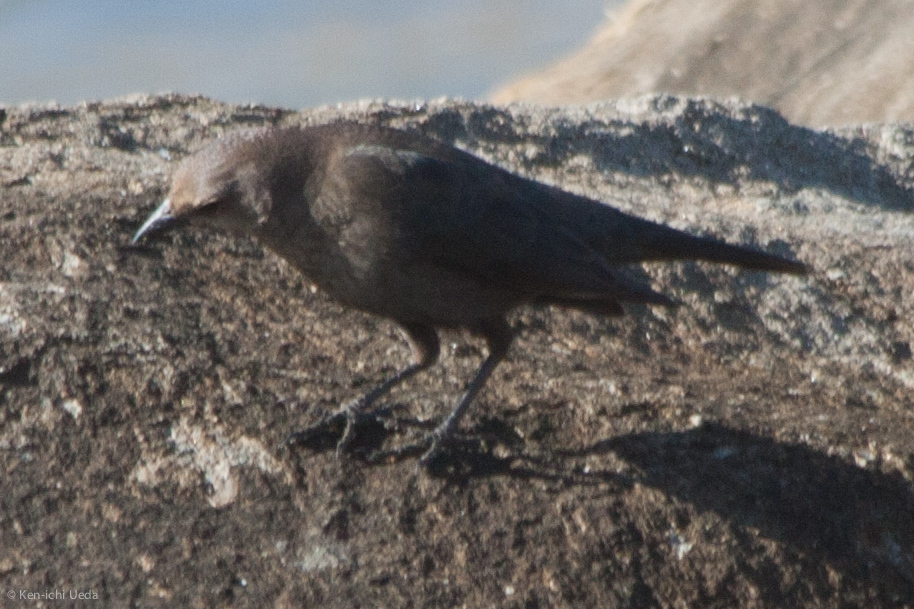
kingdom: Animalia
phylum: Chordata
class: Aves
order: Passeriformes
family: Icteridae
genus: Euphagus
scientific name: Euphagus cyanocephalus
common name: Brewer's blackbird
